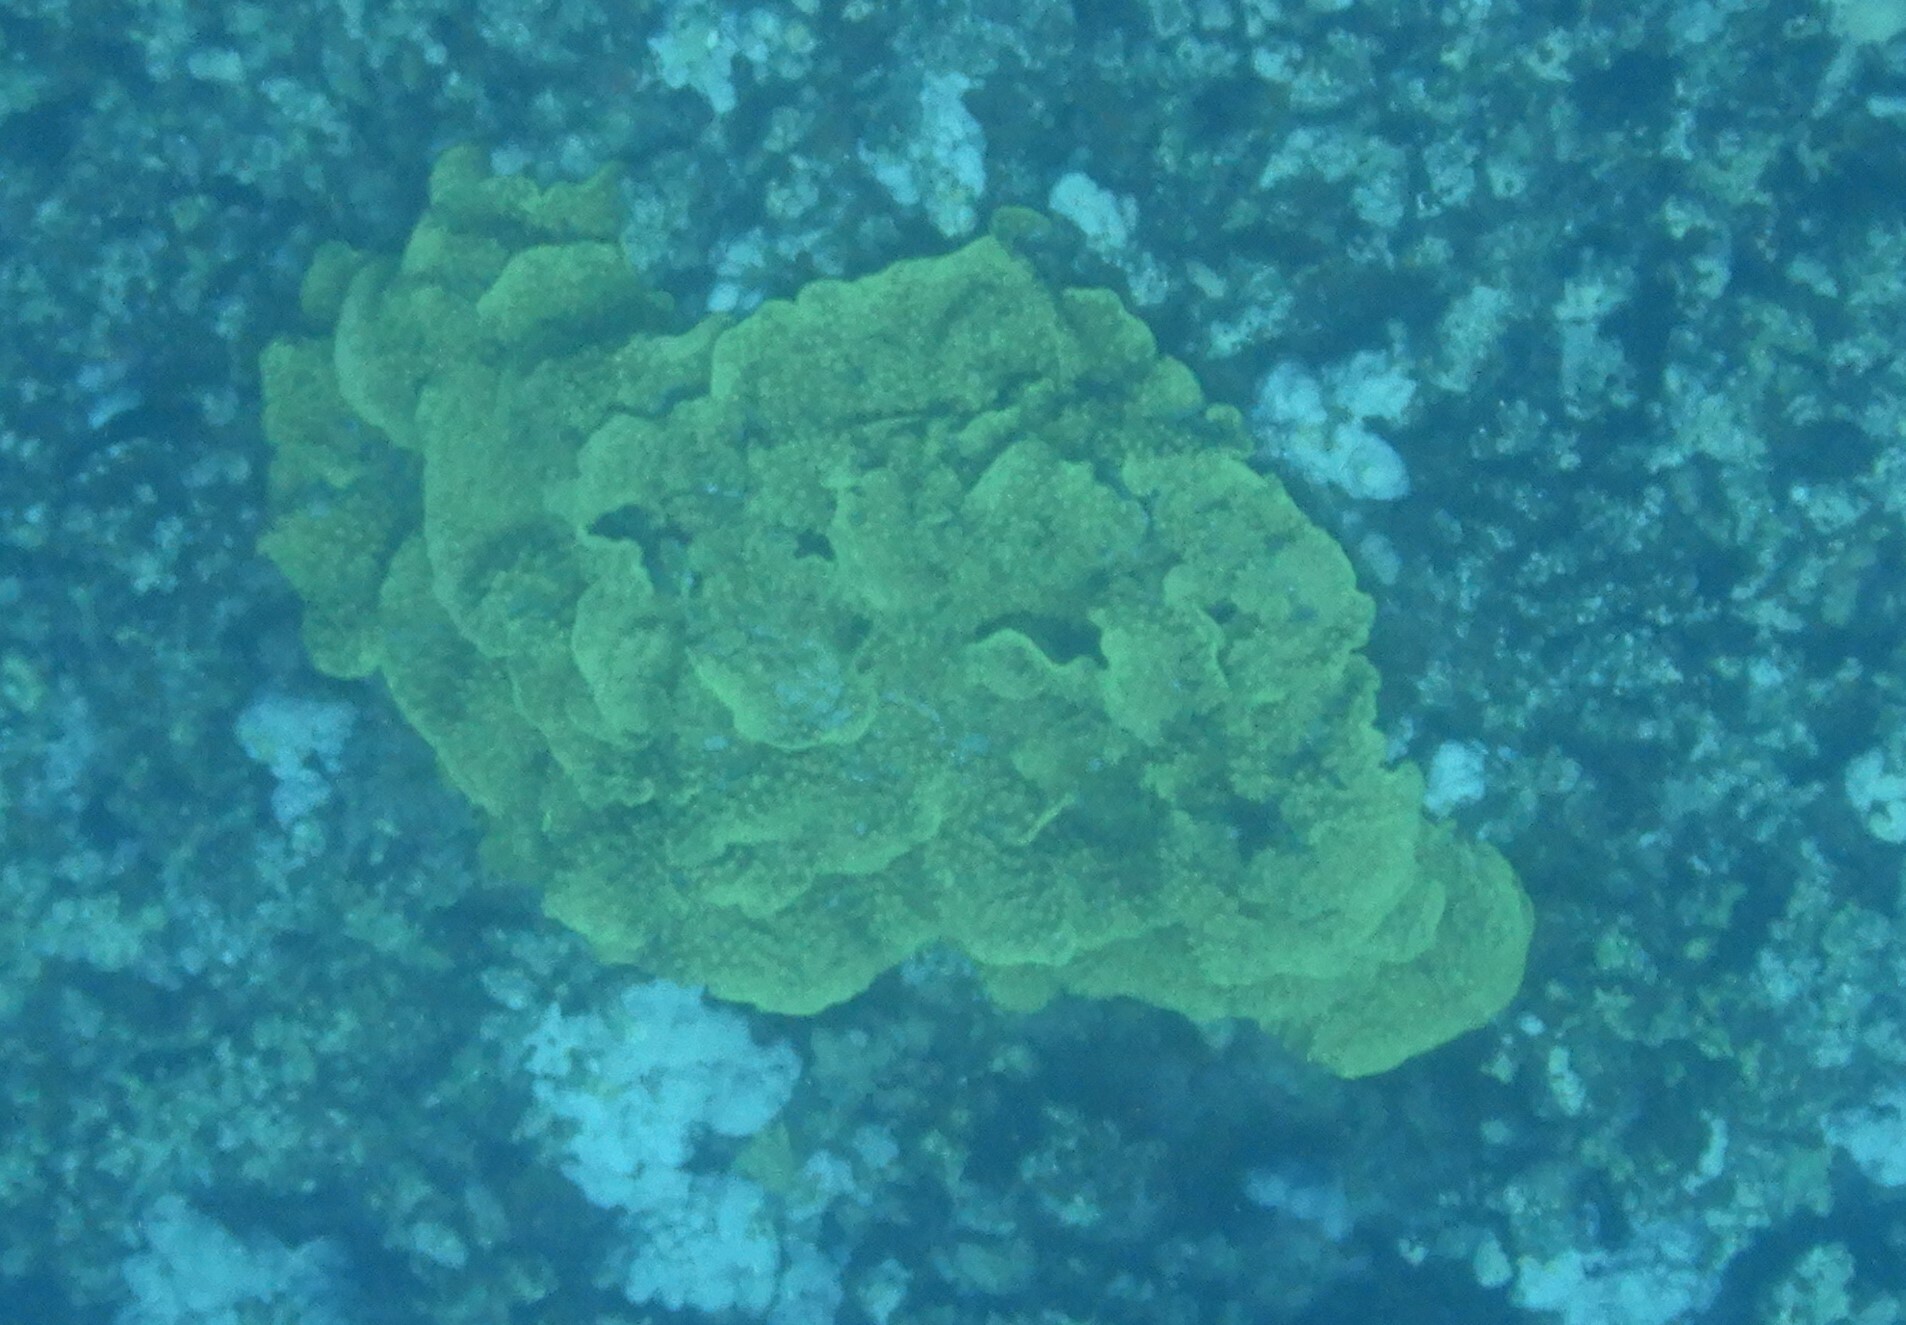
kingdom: Animalia
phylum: Cnidaria
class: Anthozoa
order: Scleractinia
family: Dendrophylliidae
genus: Turbinaria
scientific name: Turbinaria reniformis
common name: Disc coral
